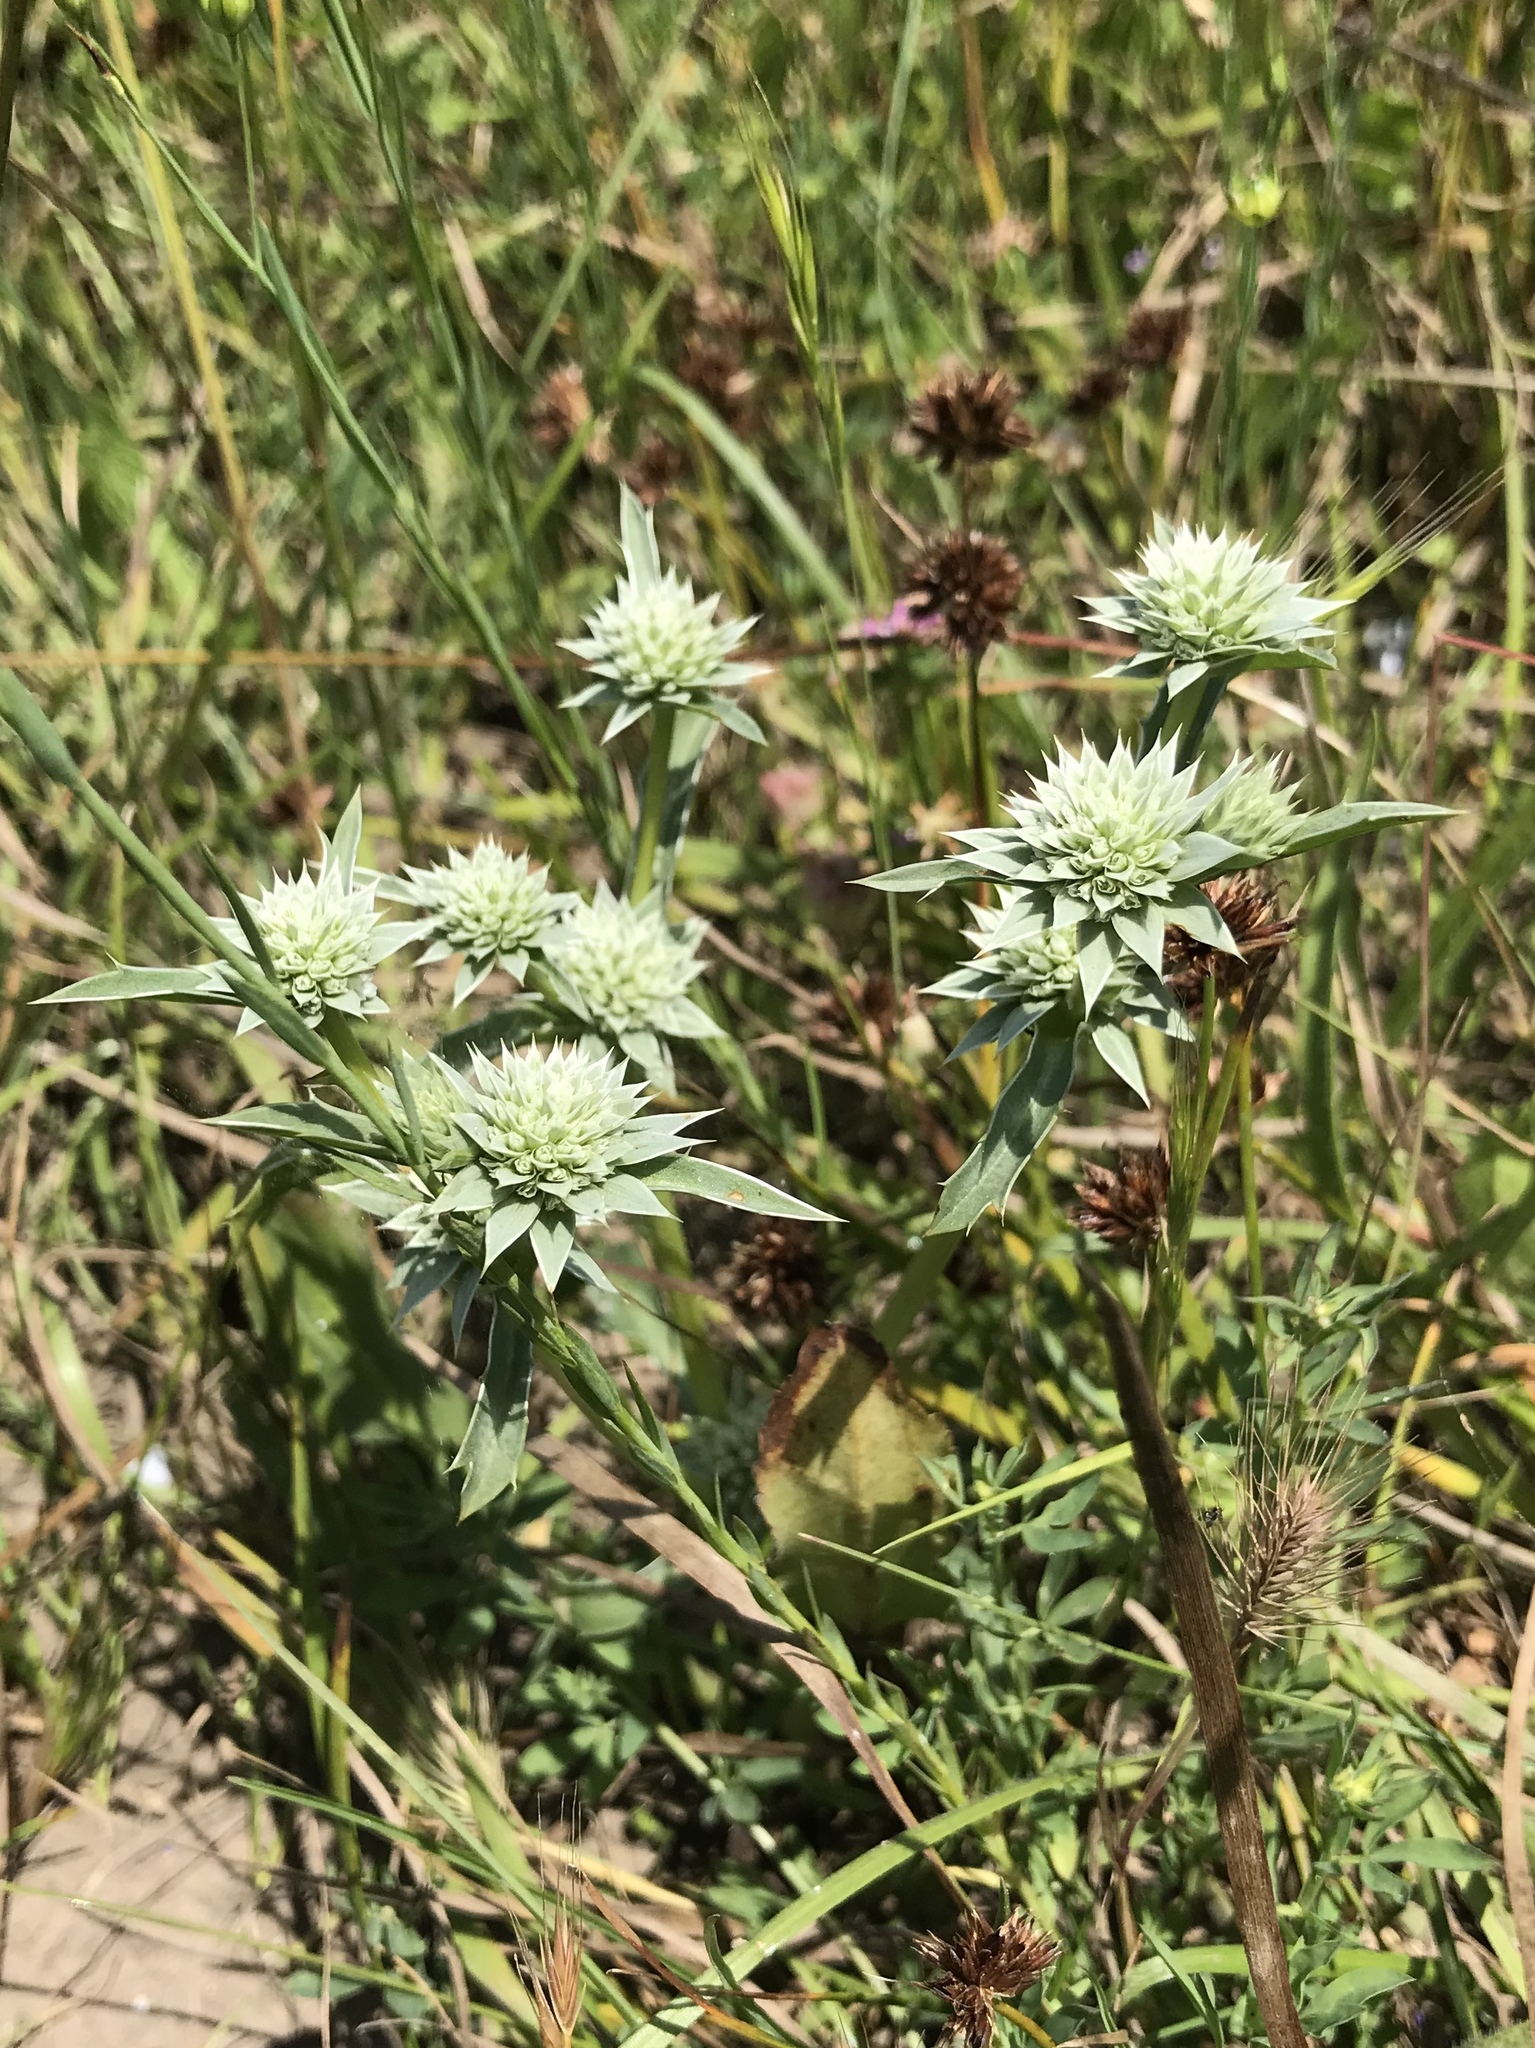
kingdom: Plantae
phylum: Tracheophyta
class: Magnoliopsida
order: Apiales
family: Apiaceae
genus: Eryngium
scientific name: Eryngium armatum
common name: Coyote thistle
